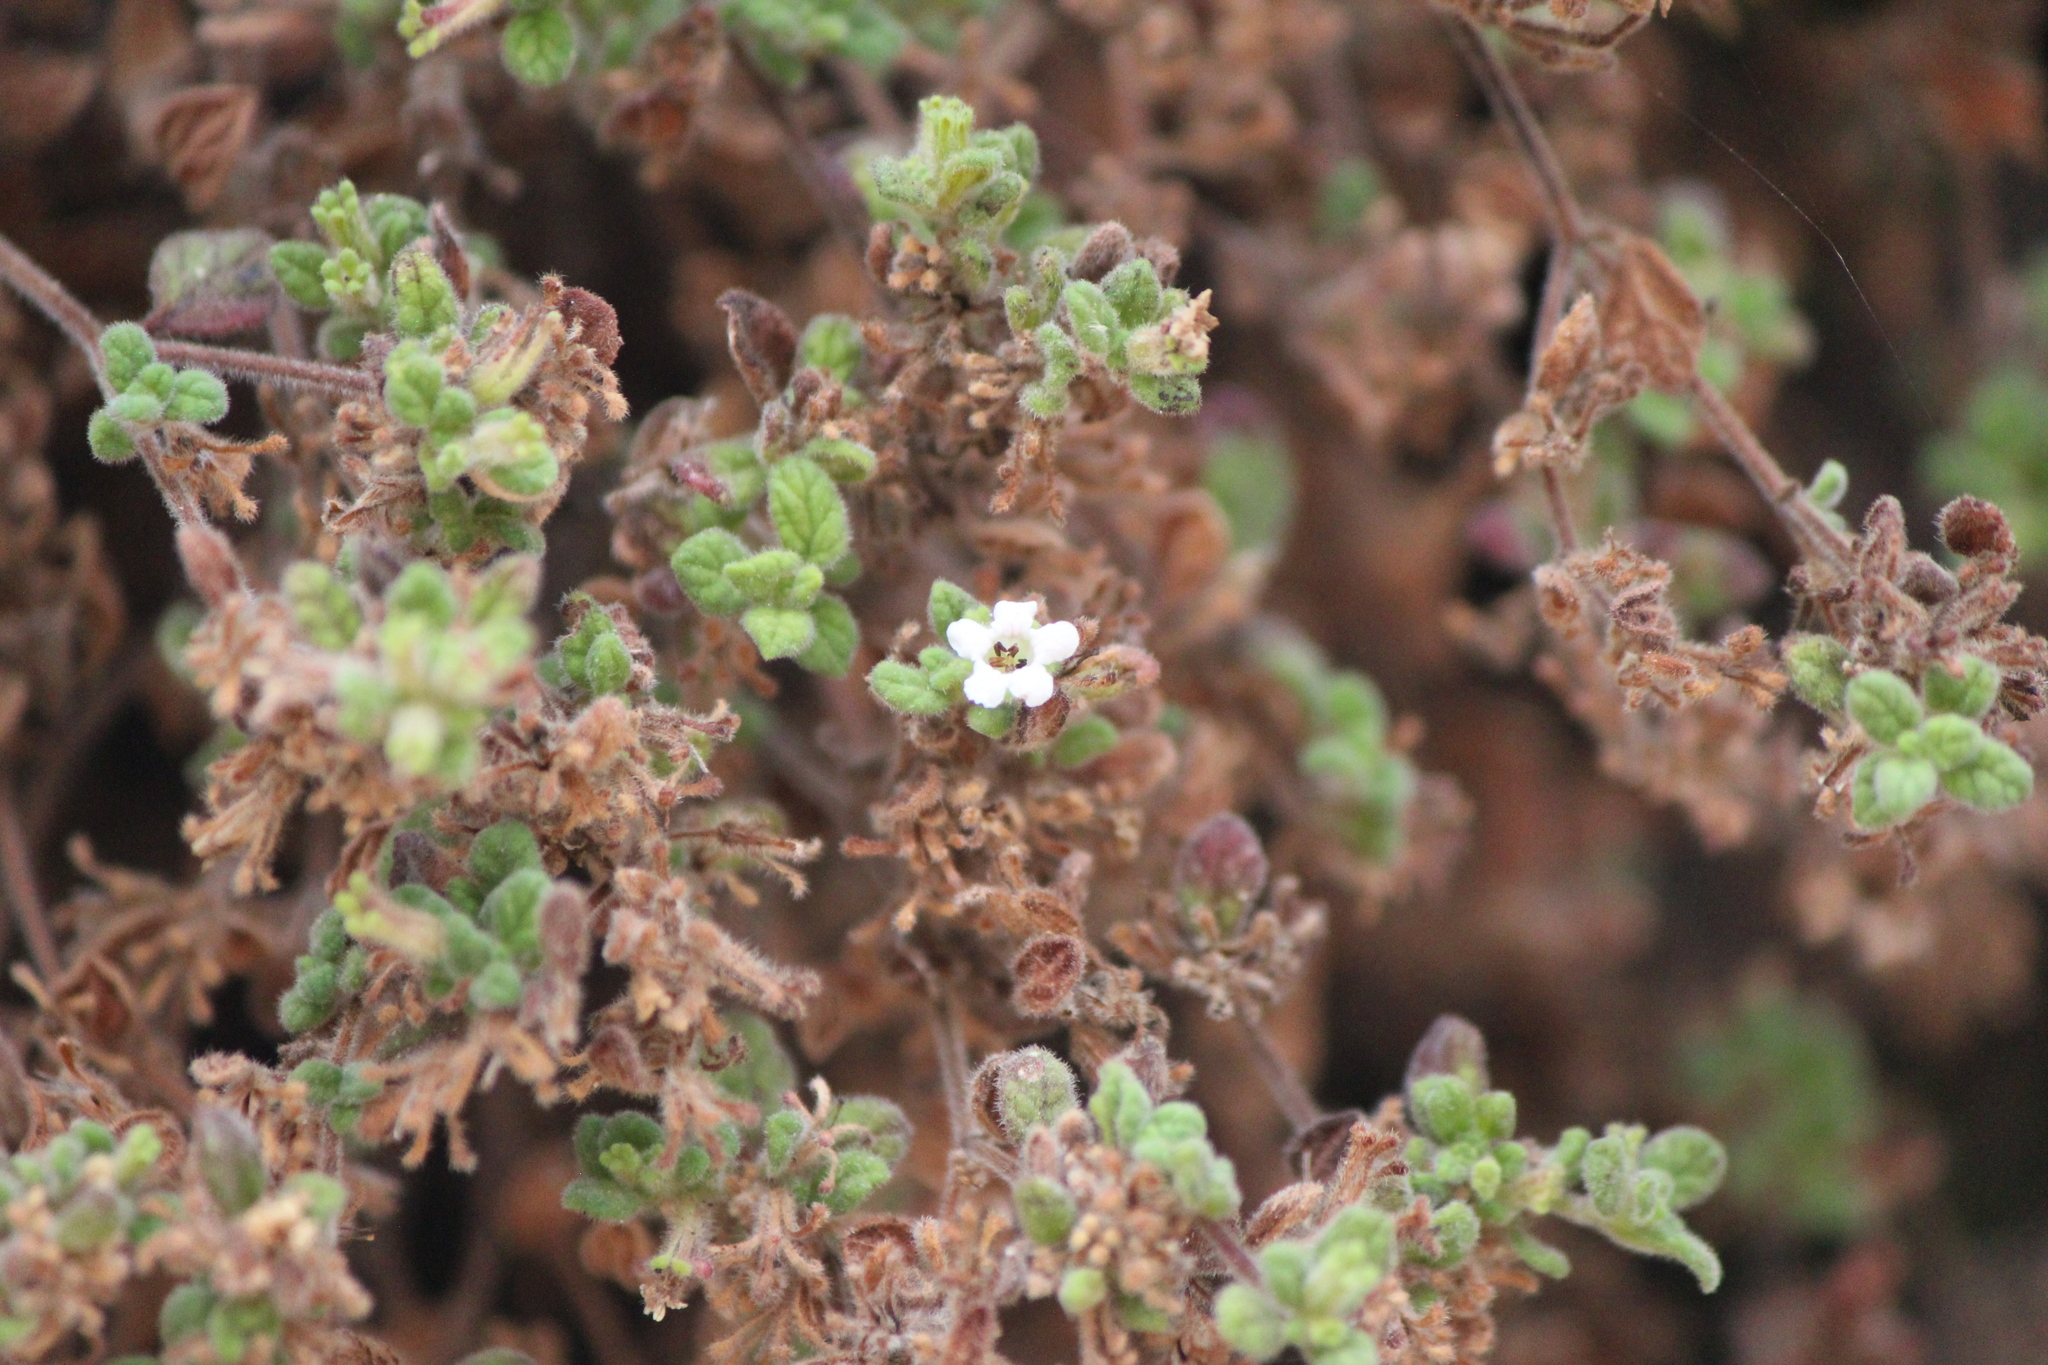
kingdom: Plantae
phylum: Tracheophyta
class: Magnoliopsida
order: Boraginales
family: Namaceae
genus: Nama
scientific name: Nama origanifolia
